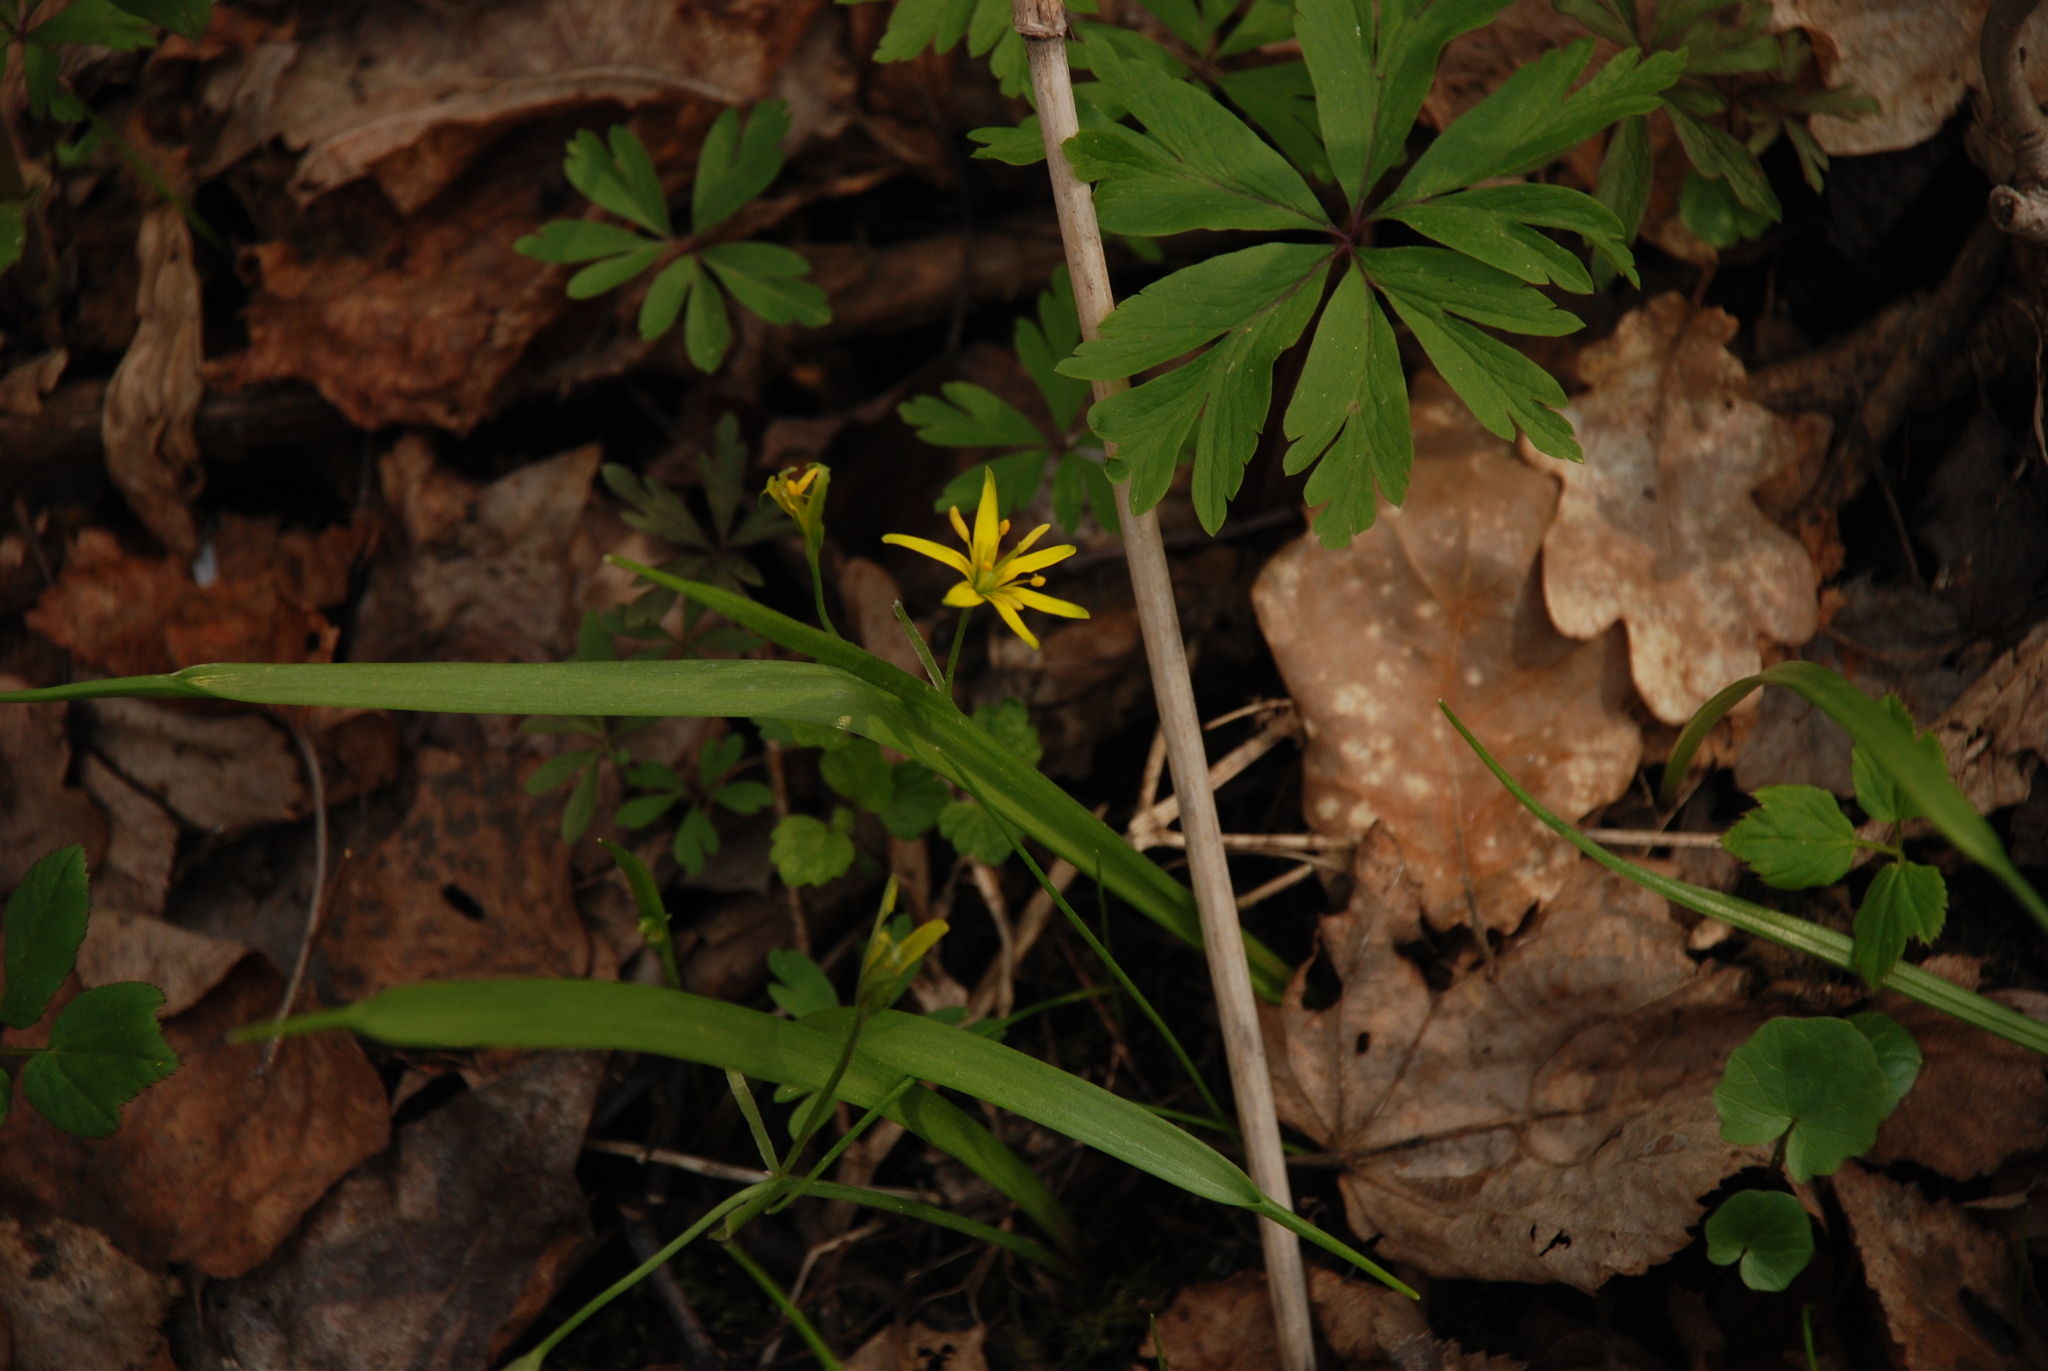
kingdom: Plantae
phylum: Tracheophyta
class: Liliopsida
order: Liliales
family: Liliaceae
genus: Gagea
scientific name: Gagea lutea
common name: Yellow star-of-bethlehem
